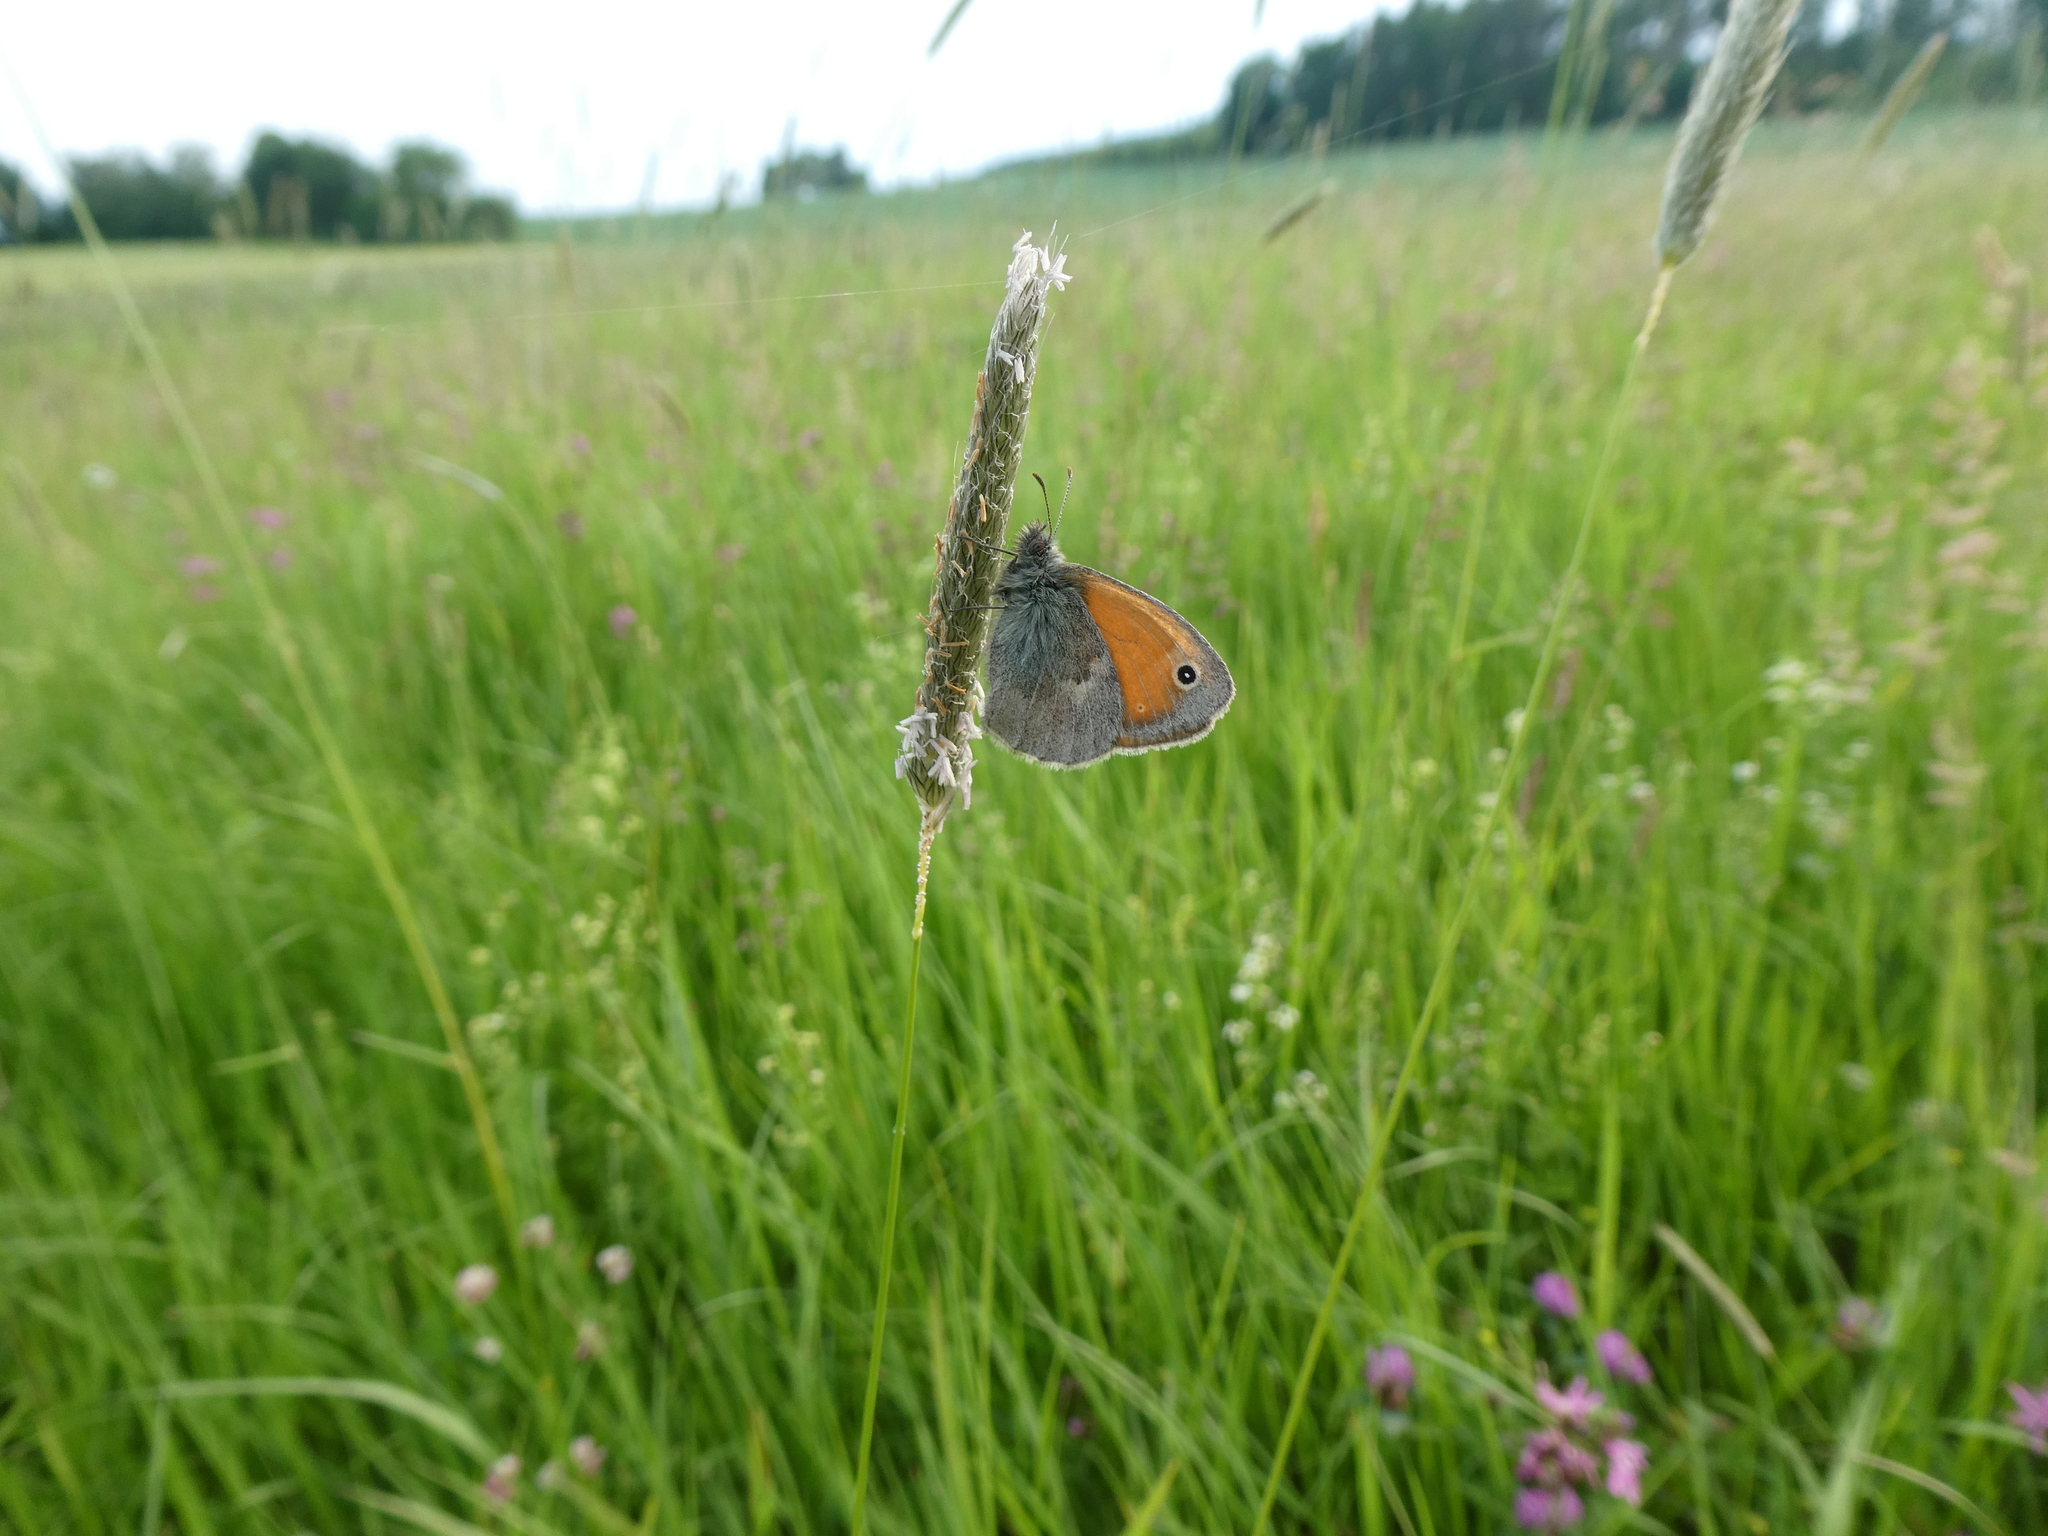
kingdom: Animalia
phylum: Arthropoda
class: Insecta
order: Lepidoptera
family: Nymphalidae
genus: Coenonympha
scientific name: Coenonympha pamphilus
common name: Small heath
